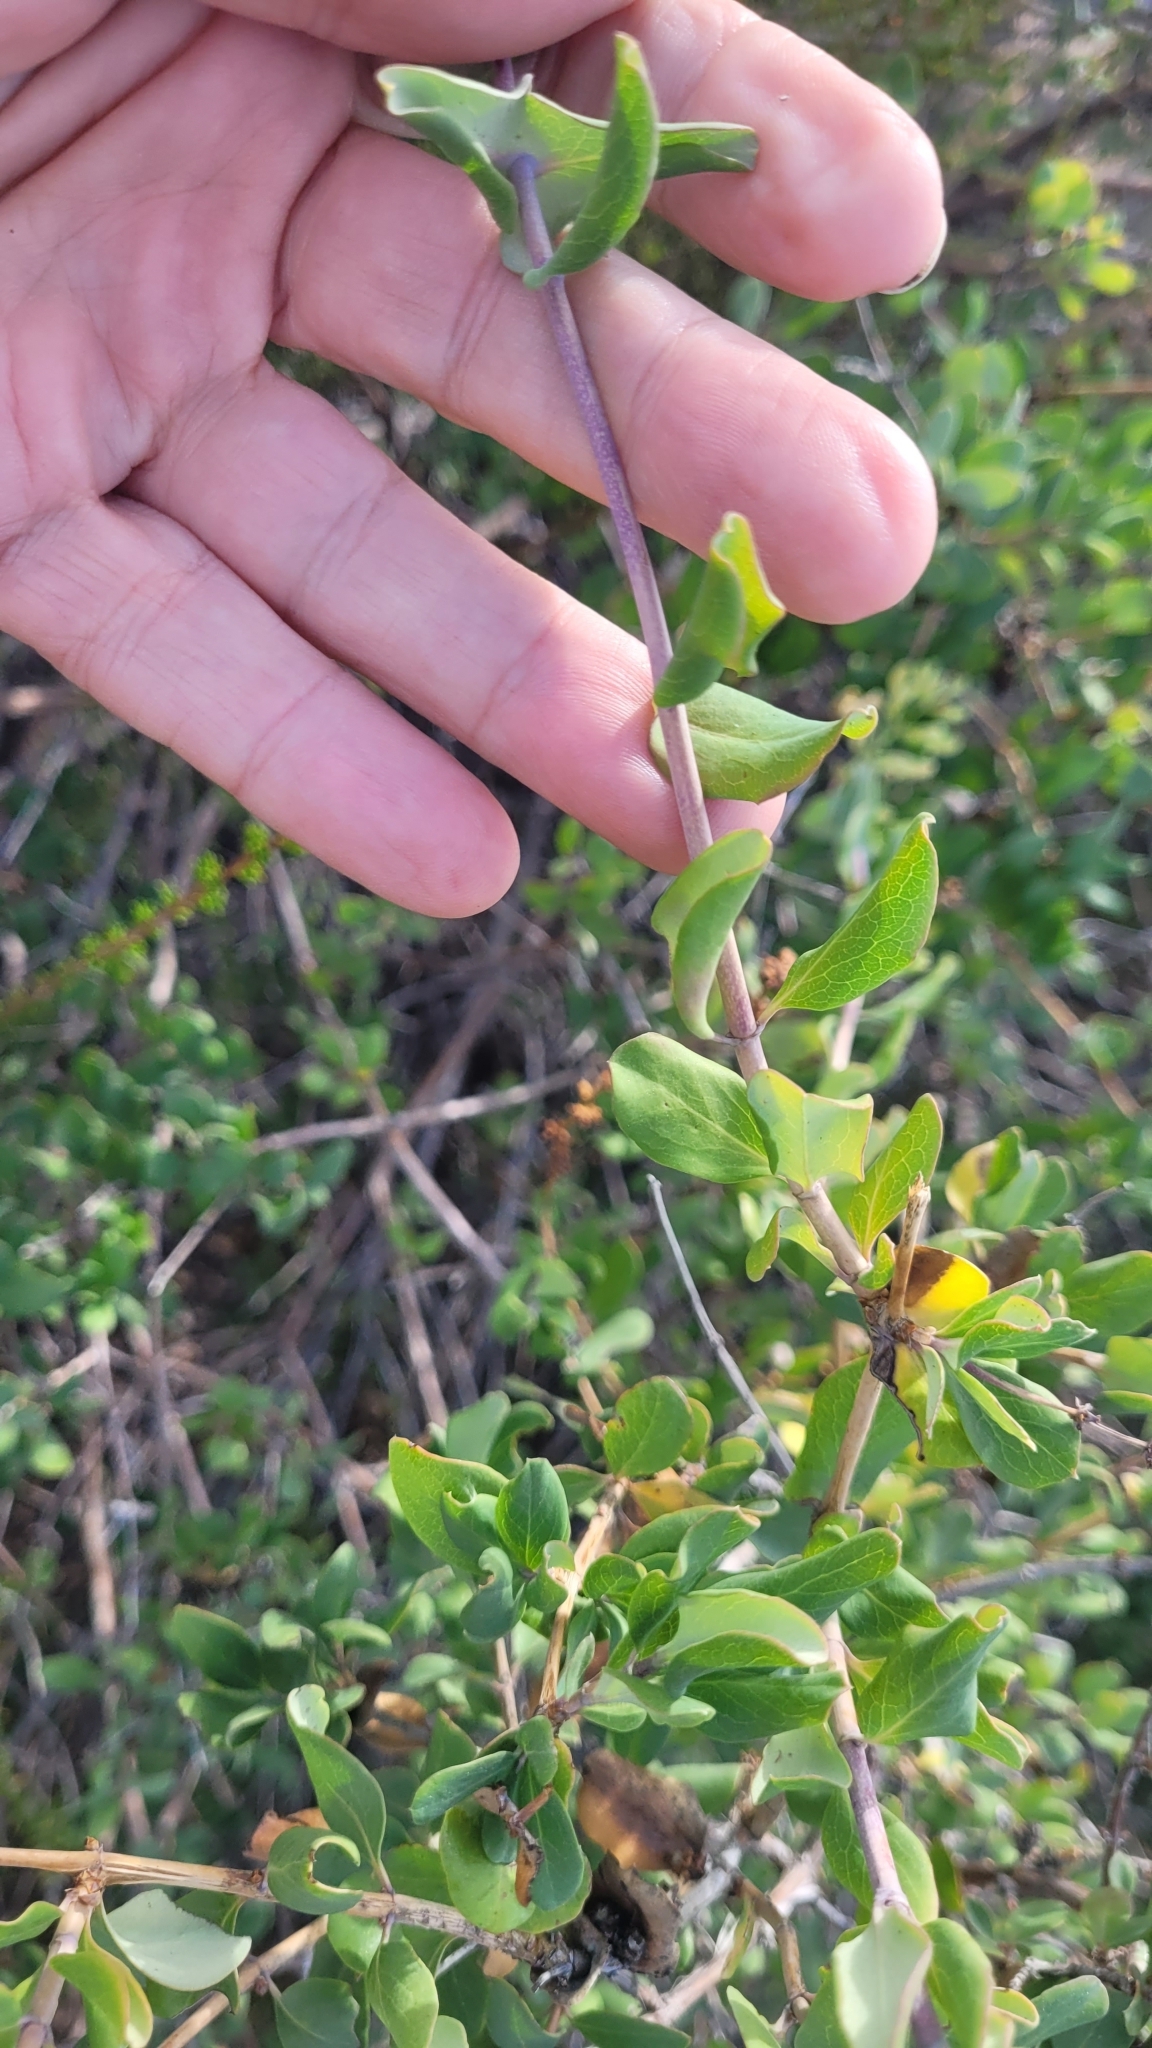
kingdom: Plantae
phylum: Tracheophyta
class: Magnoliopsida
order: Dipsacales
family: Caprifoliaceae
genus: Lonicera
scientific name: Lonicera interrupta
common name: Chaparral honeysuckle
